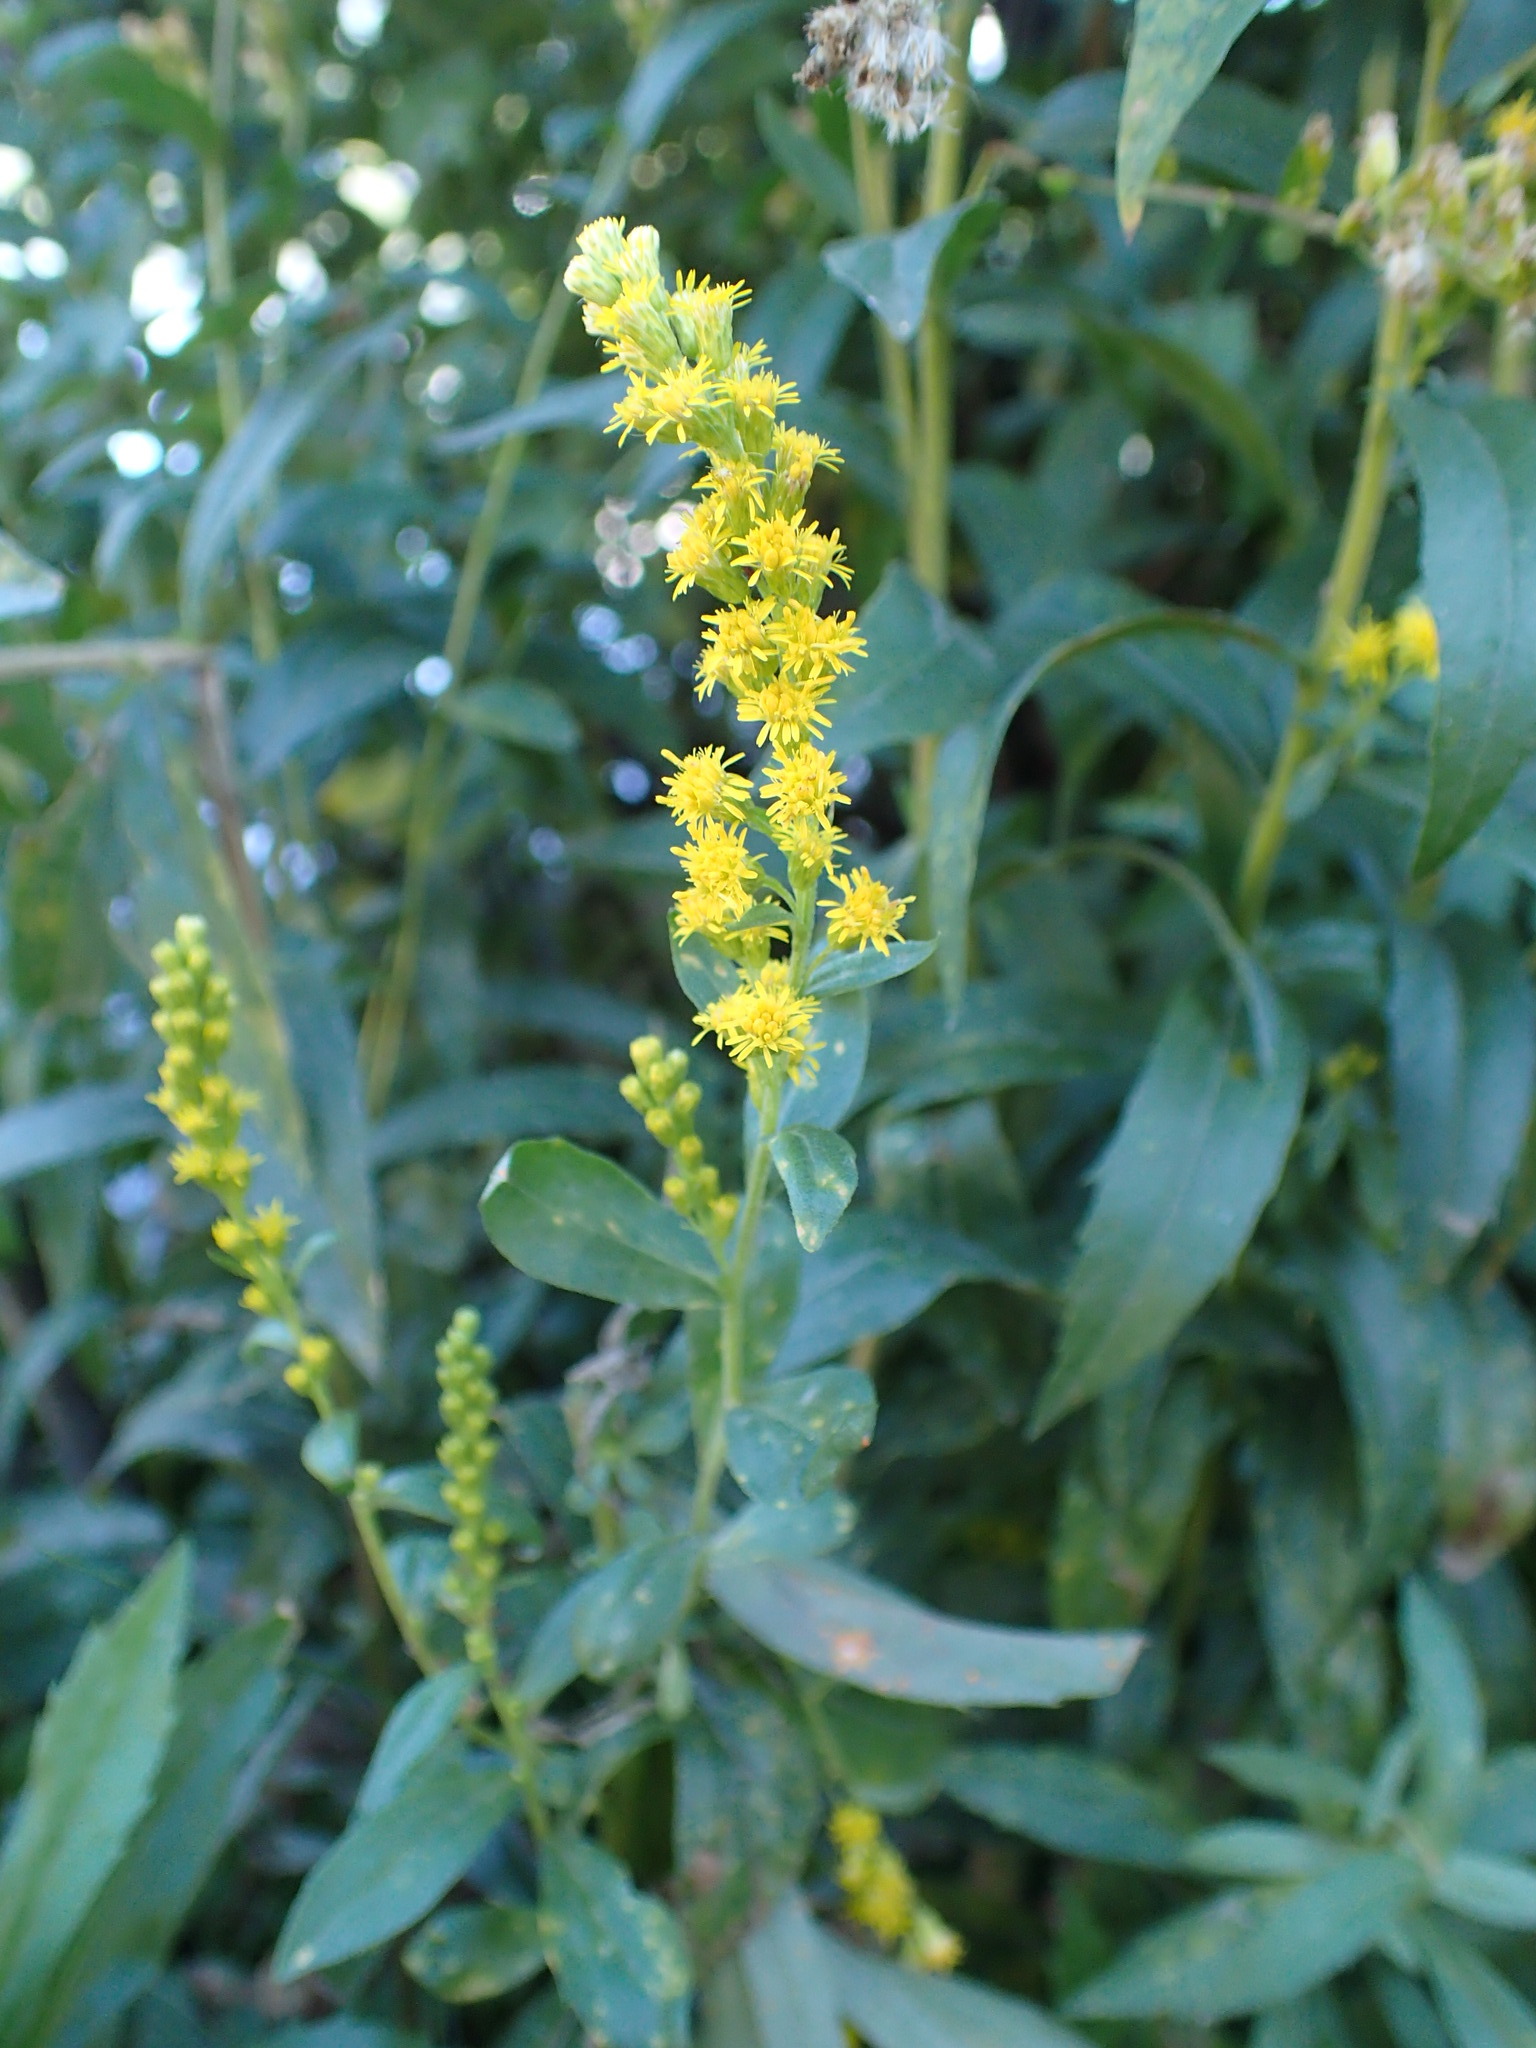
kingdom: Plantae
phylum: Tracheophyta
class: Magnoliopsida
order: Asterales
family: Asteraceae
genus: Solidago
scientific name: Solidago elongata
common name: Cascade canada goldenrod
